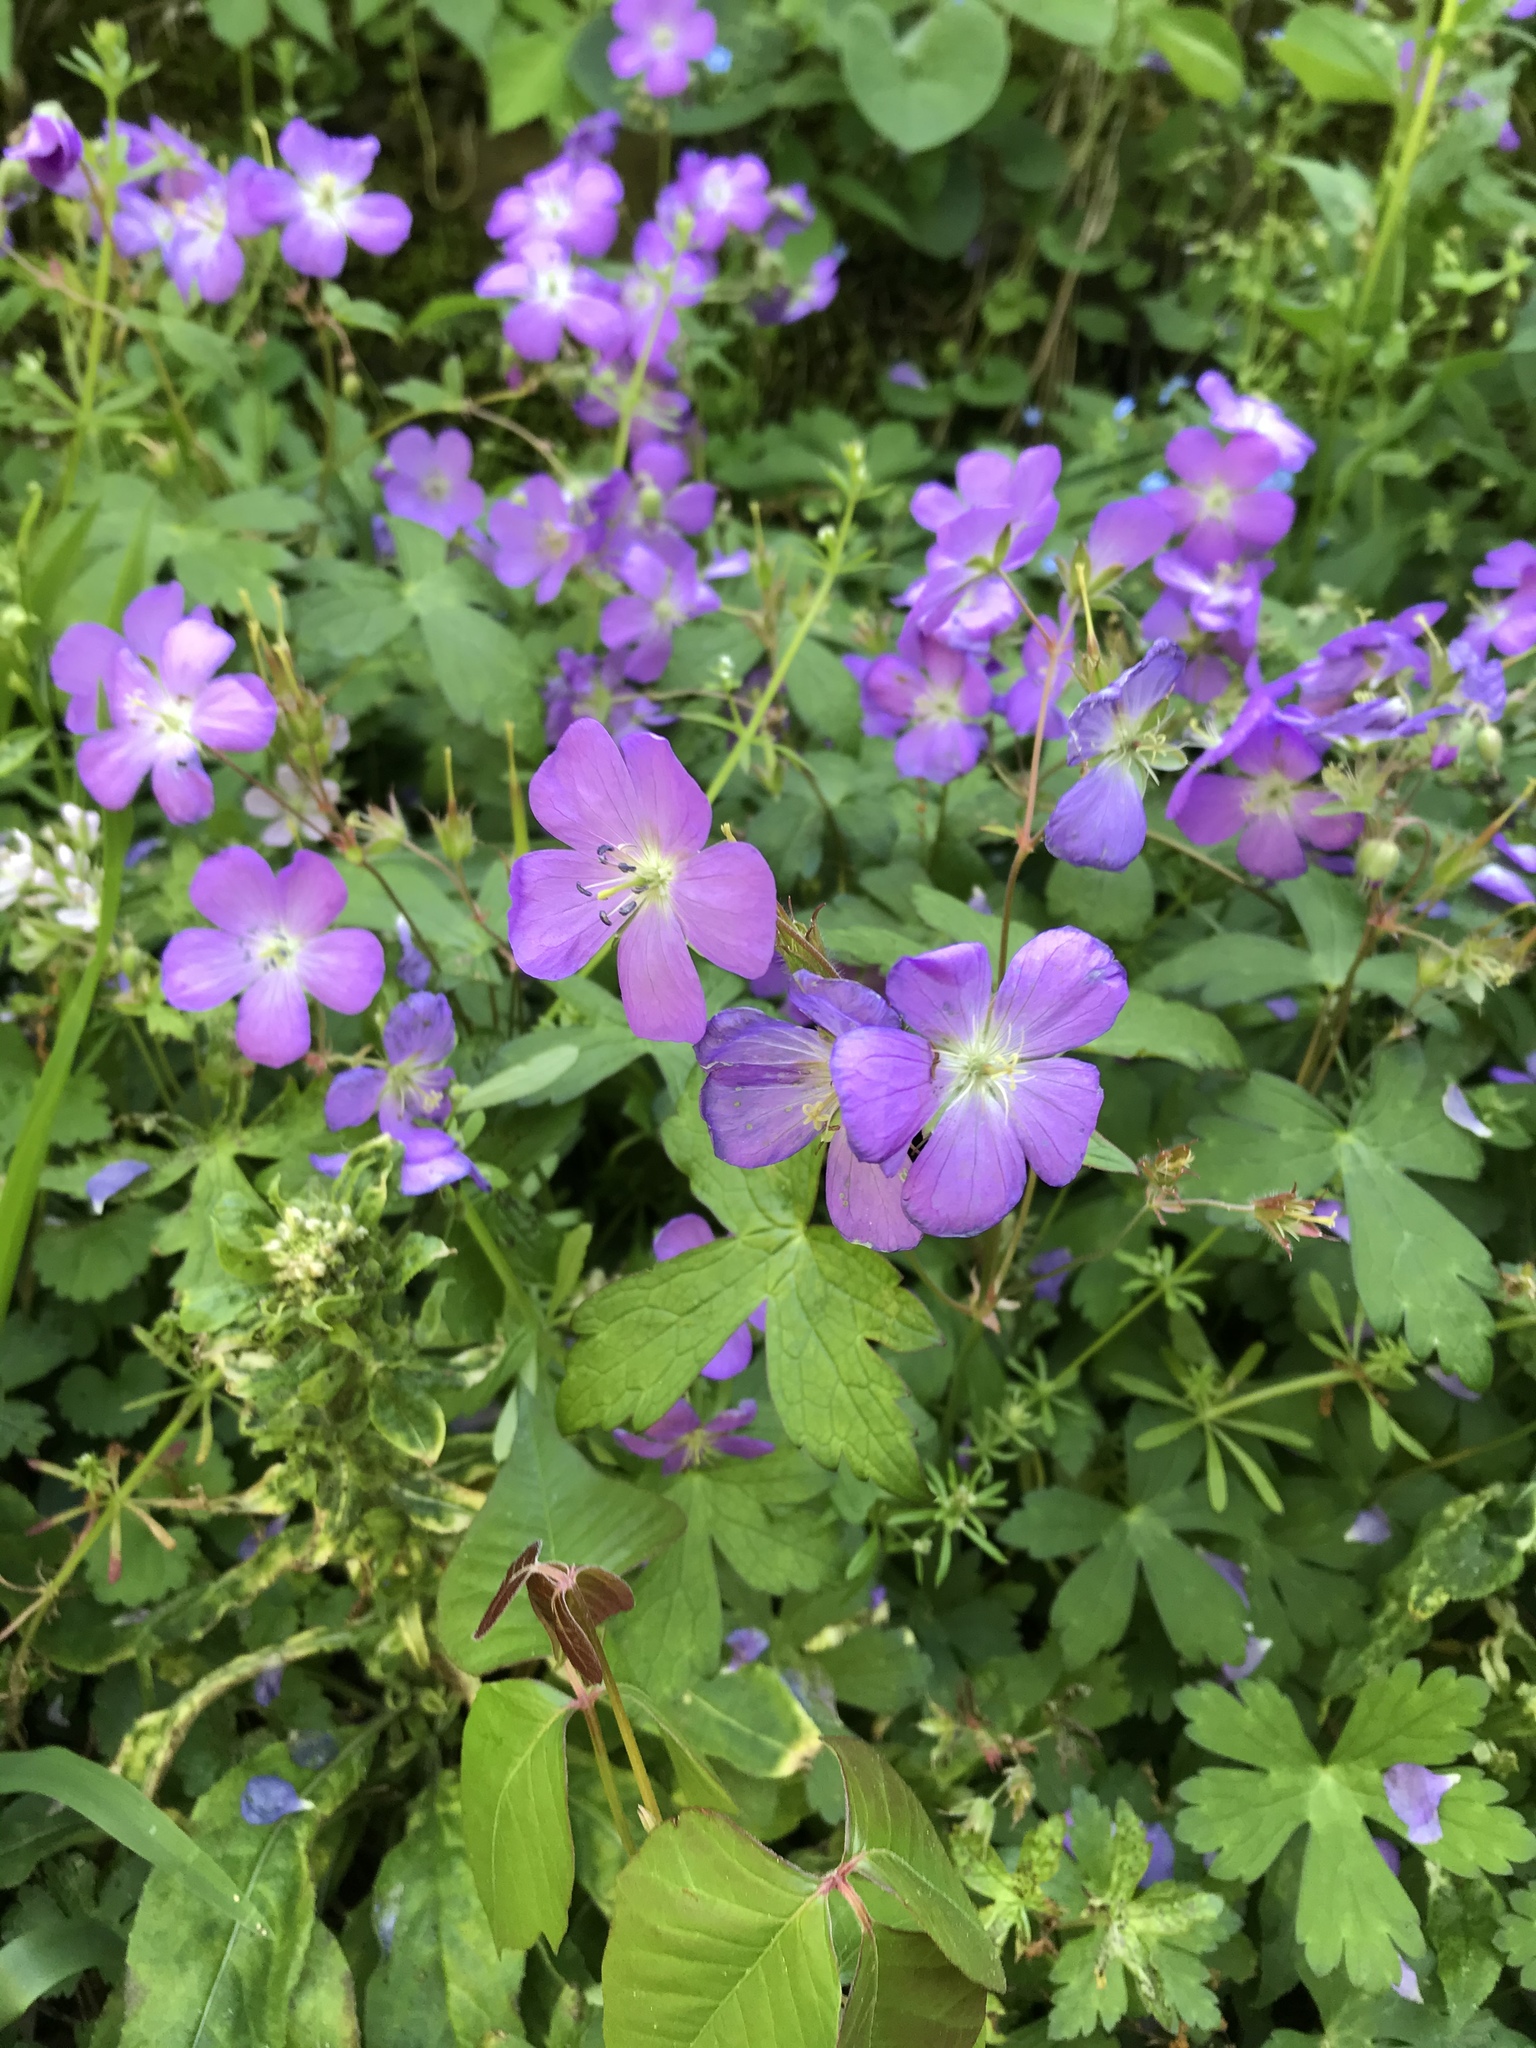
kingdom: Plantae
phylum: Tracheophyta
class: Magnoliopsida
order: Geraniales
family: Geraniaceae
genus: Geranium
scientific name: Geranium maculatum
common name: Spotted geranium
